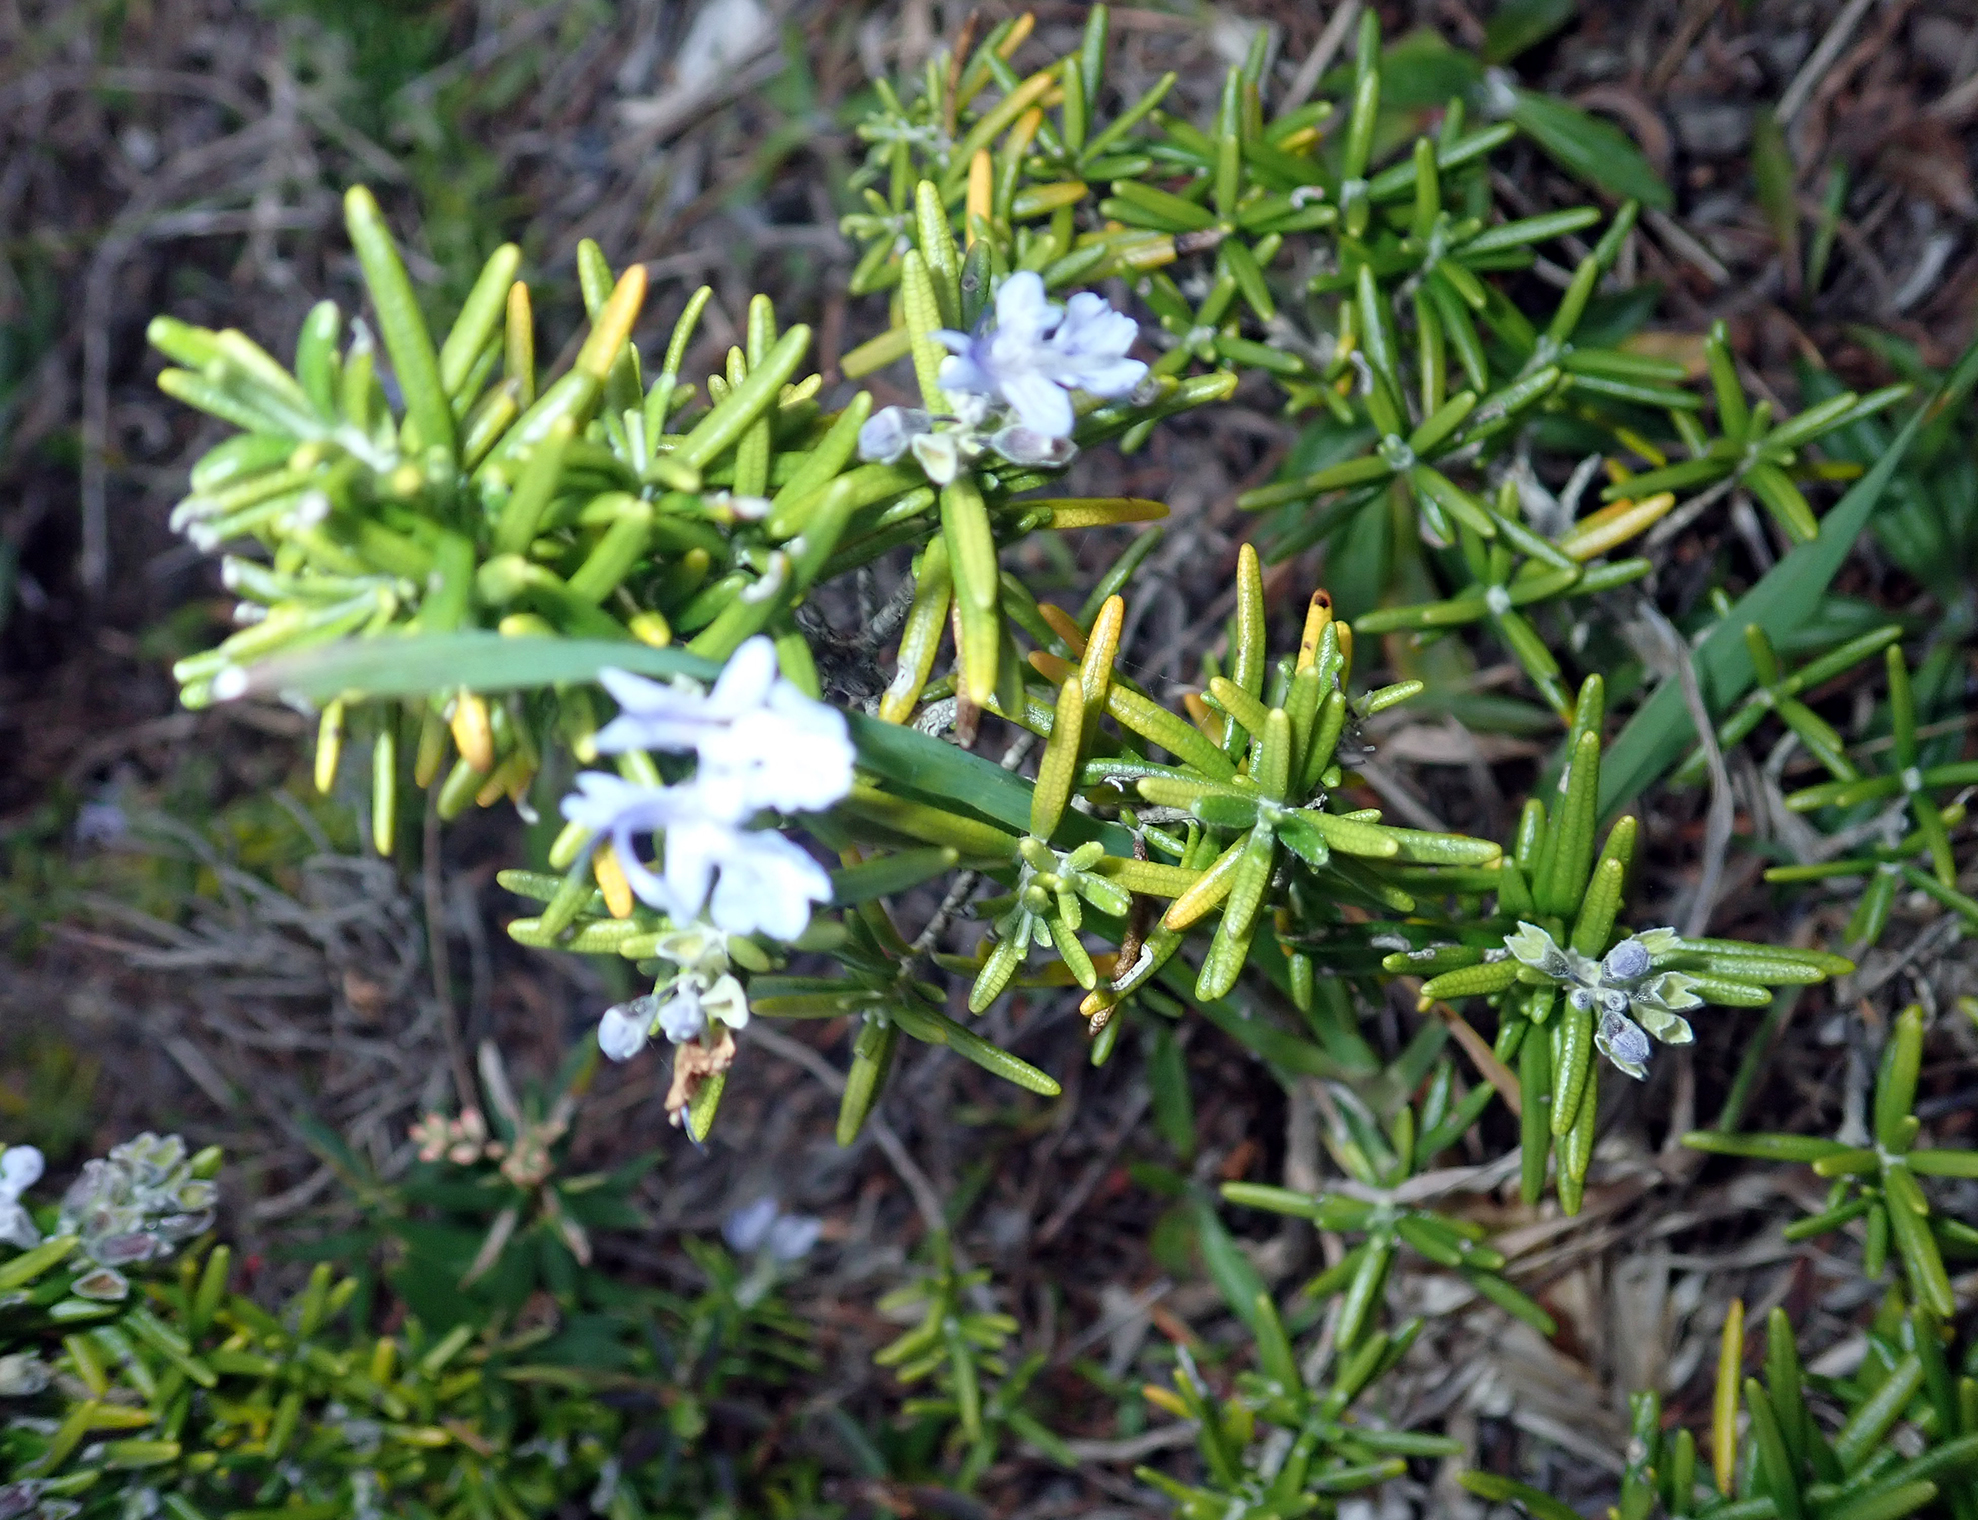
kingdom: Plantae
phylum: Tracheophyta
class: Magnoliopsida
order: Lamiales
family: Lamiaceae
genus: Salvia
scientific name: Salvia rosmarinus
